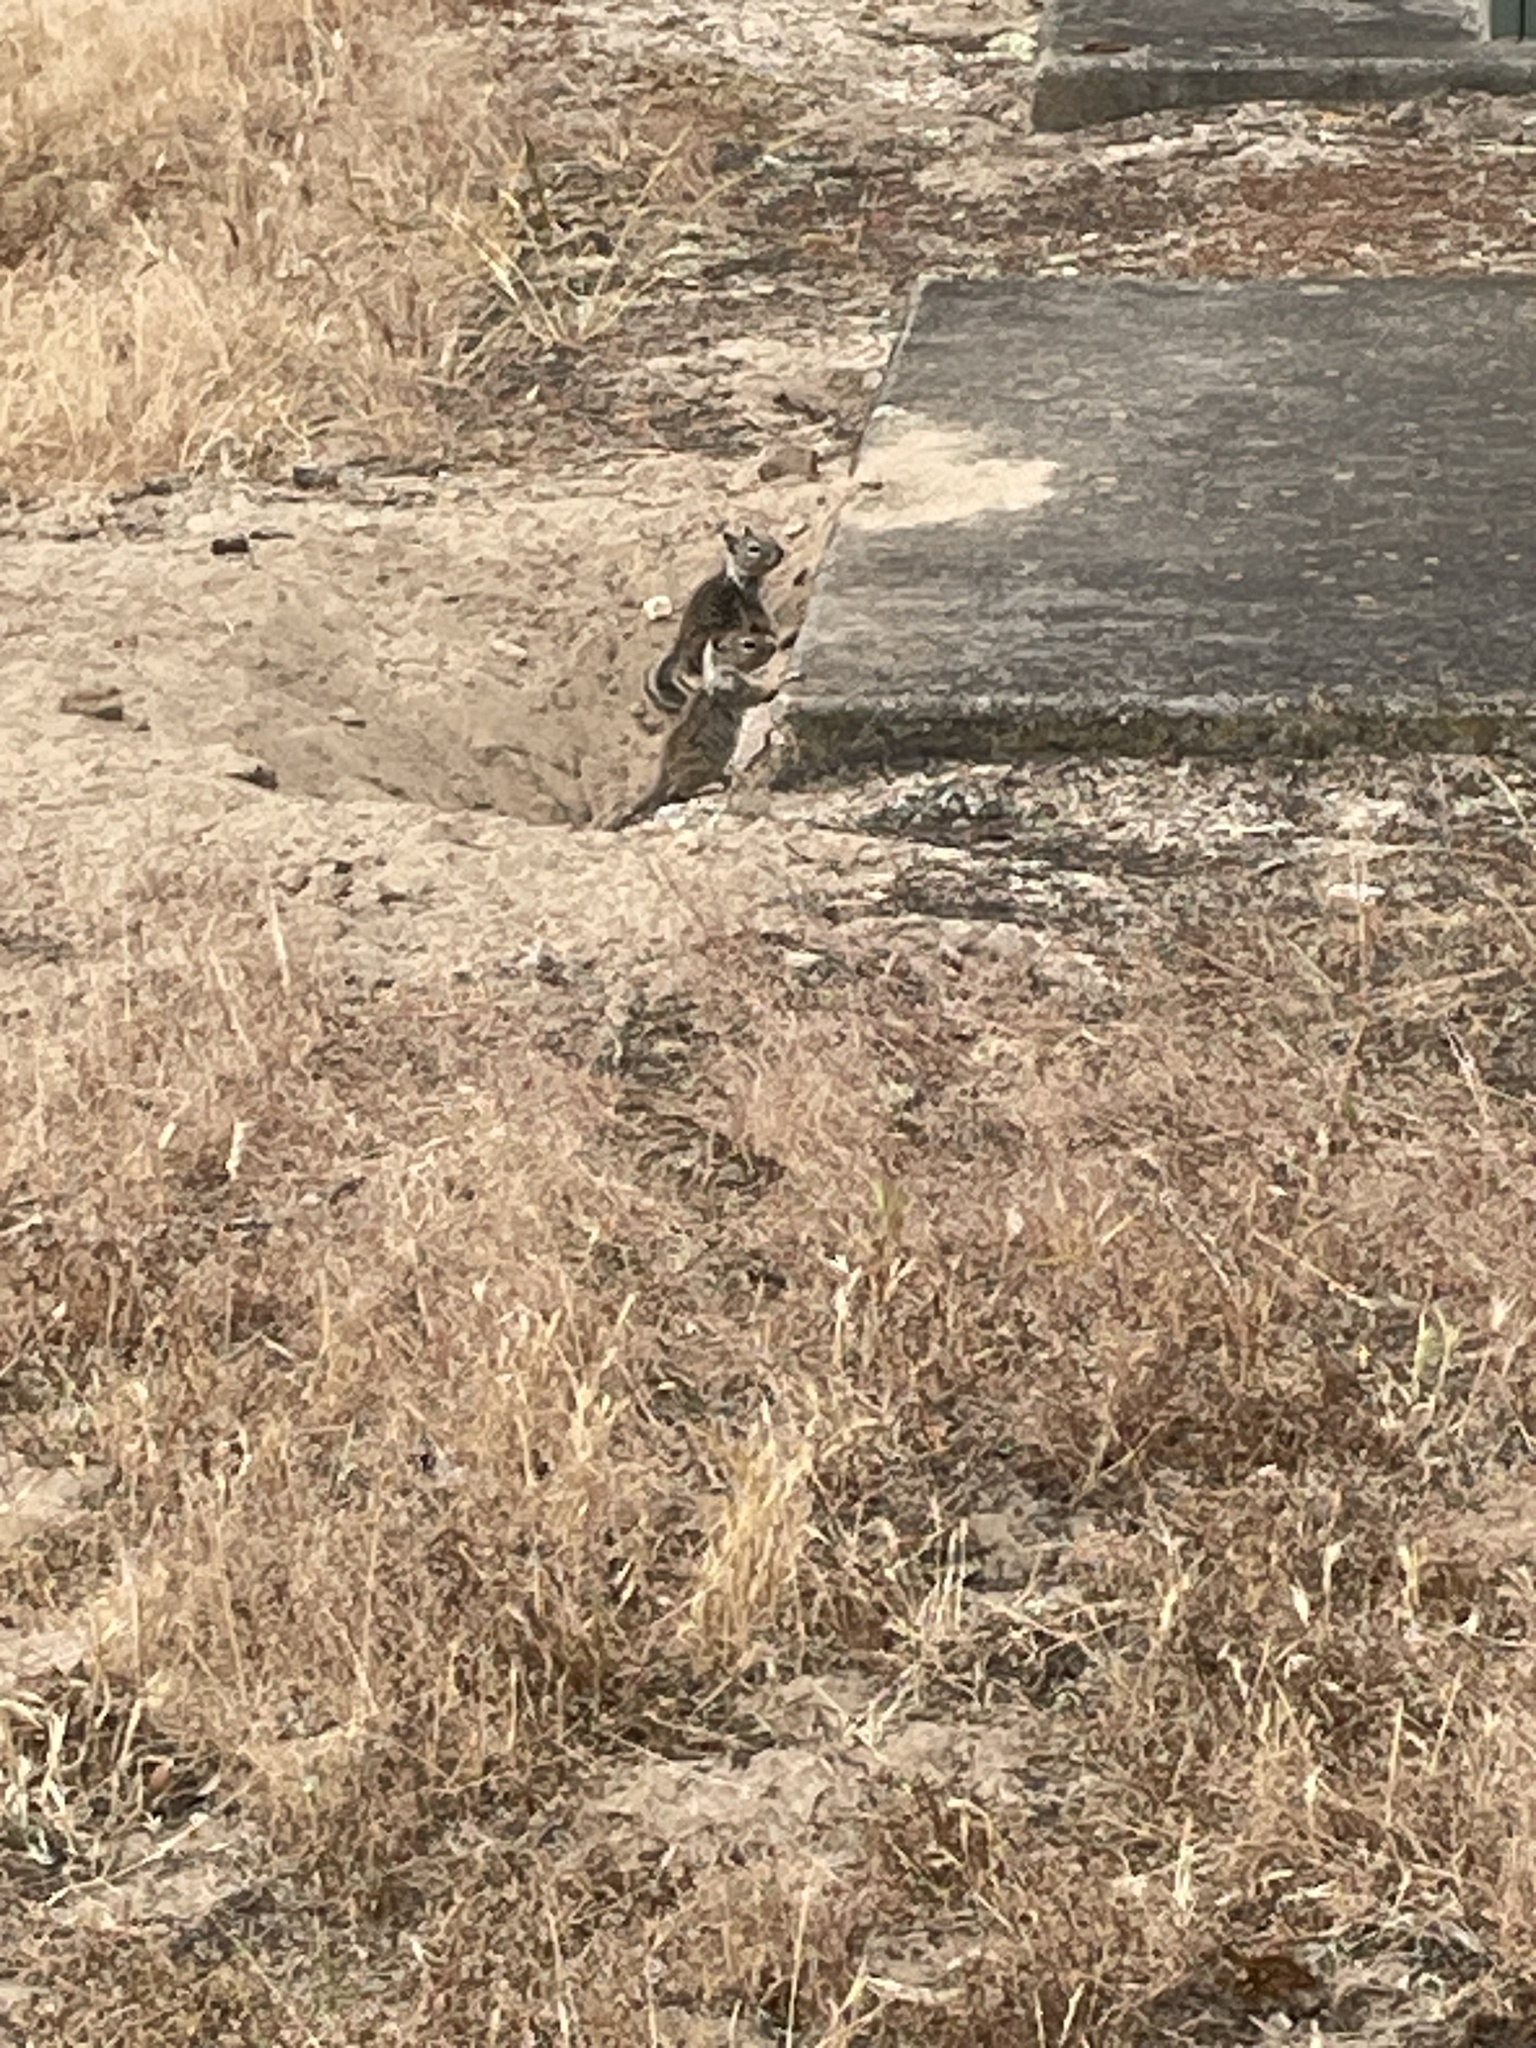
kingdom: Animalia
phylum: Chordata
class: Mammalia
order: Rodentia
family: Sciuridae
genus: Otospermophilus
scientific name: Otospermophilus beecheyi
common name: California ground squirrel
